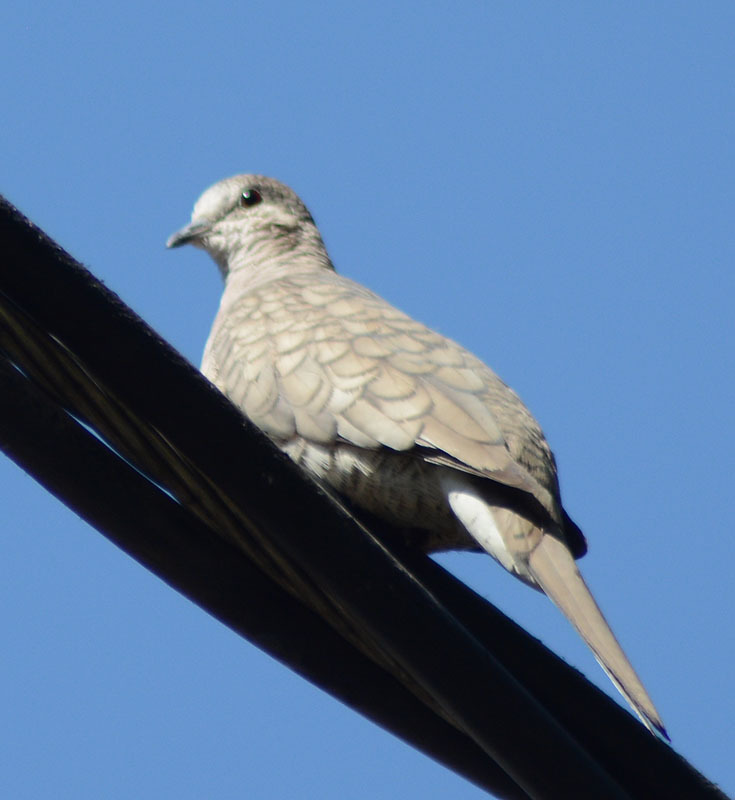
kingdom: Animalia
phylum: Chordata
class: Aves
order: Columbiformes
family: Columbidae
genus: Columbina
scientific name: Columbina inca
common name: Inca dove
